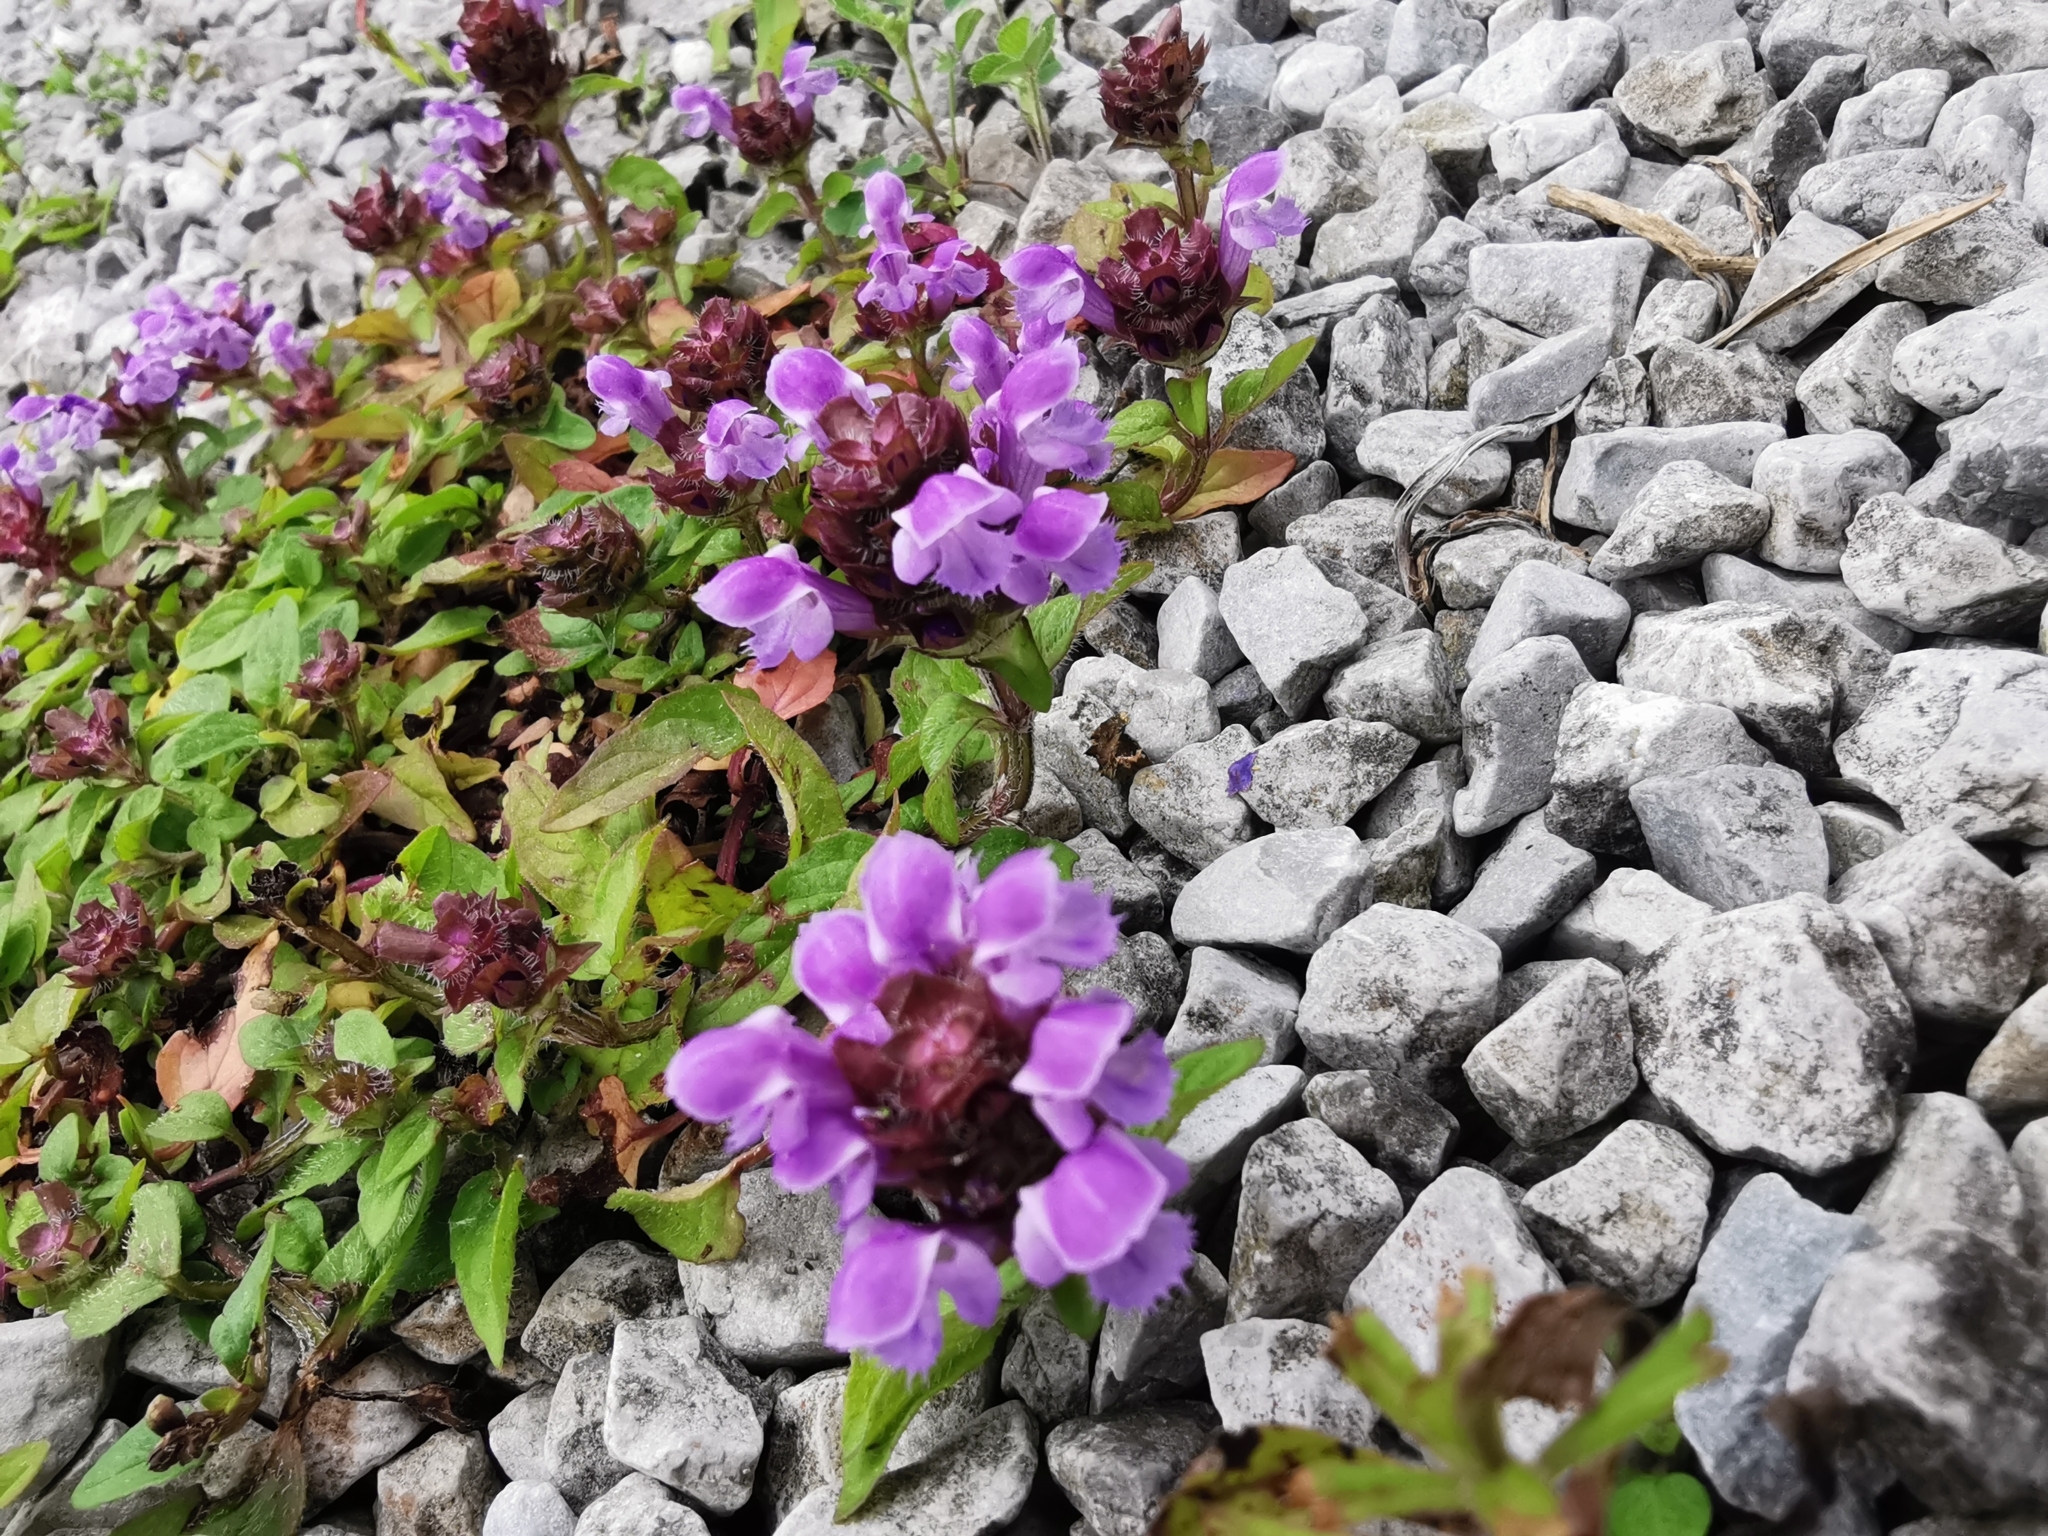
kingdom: Plantae
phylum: Tracheophyta
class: Magnoliopsida
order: Lamiales
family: Lamiaceae
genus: Prunella
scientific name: Prunella vulgaris
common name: Heal-all
